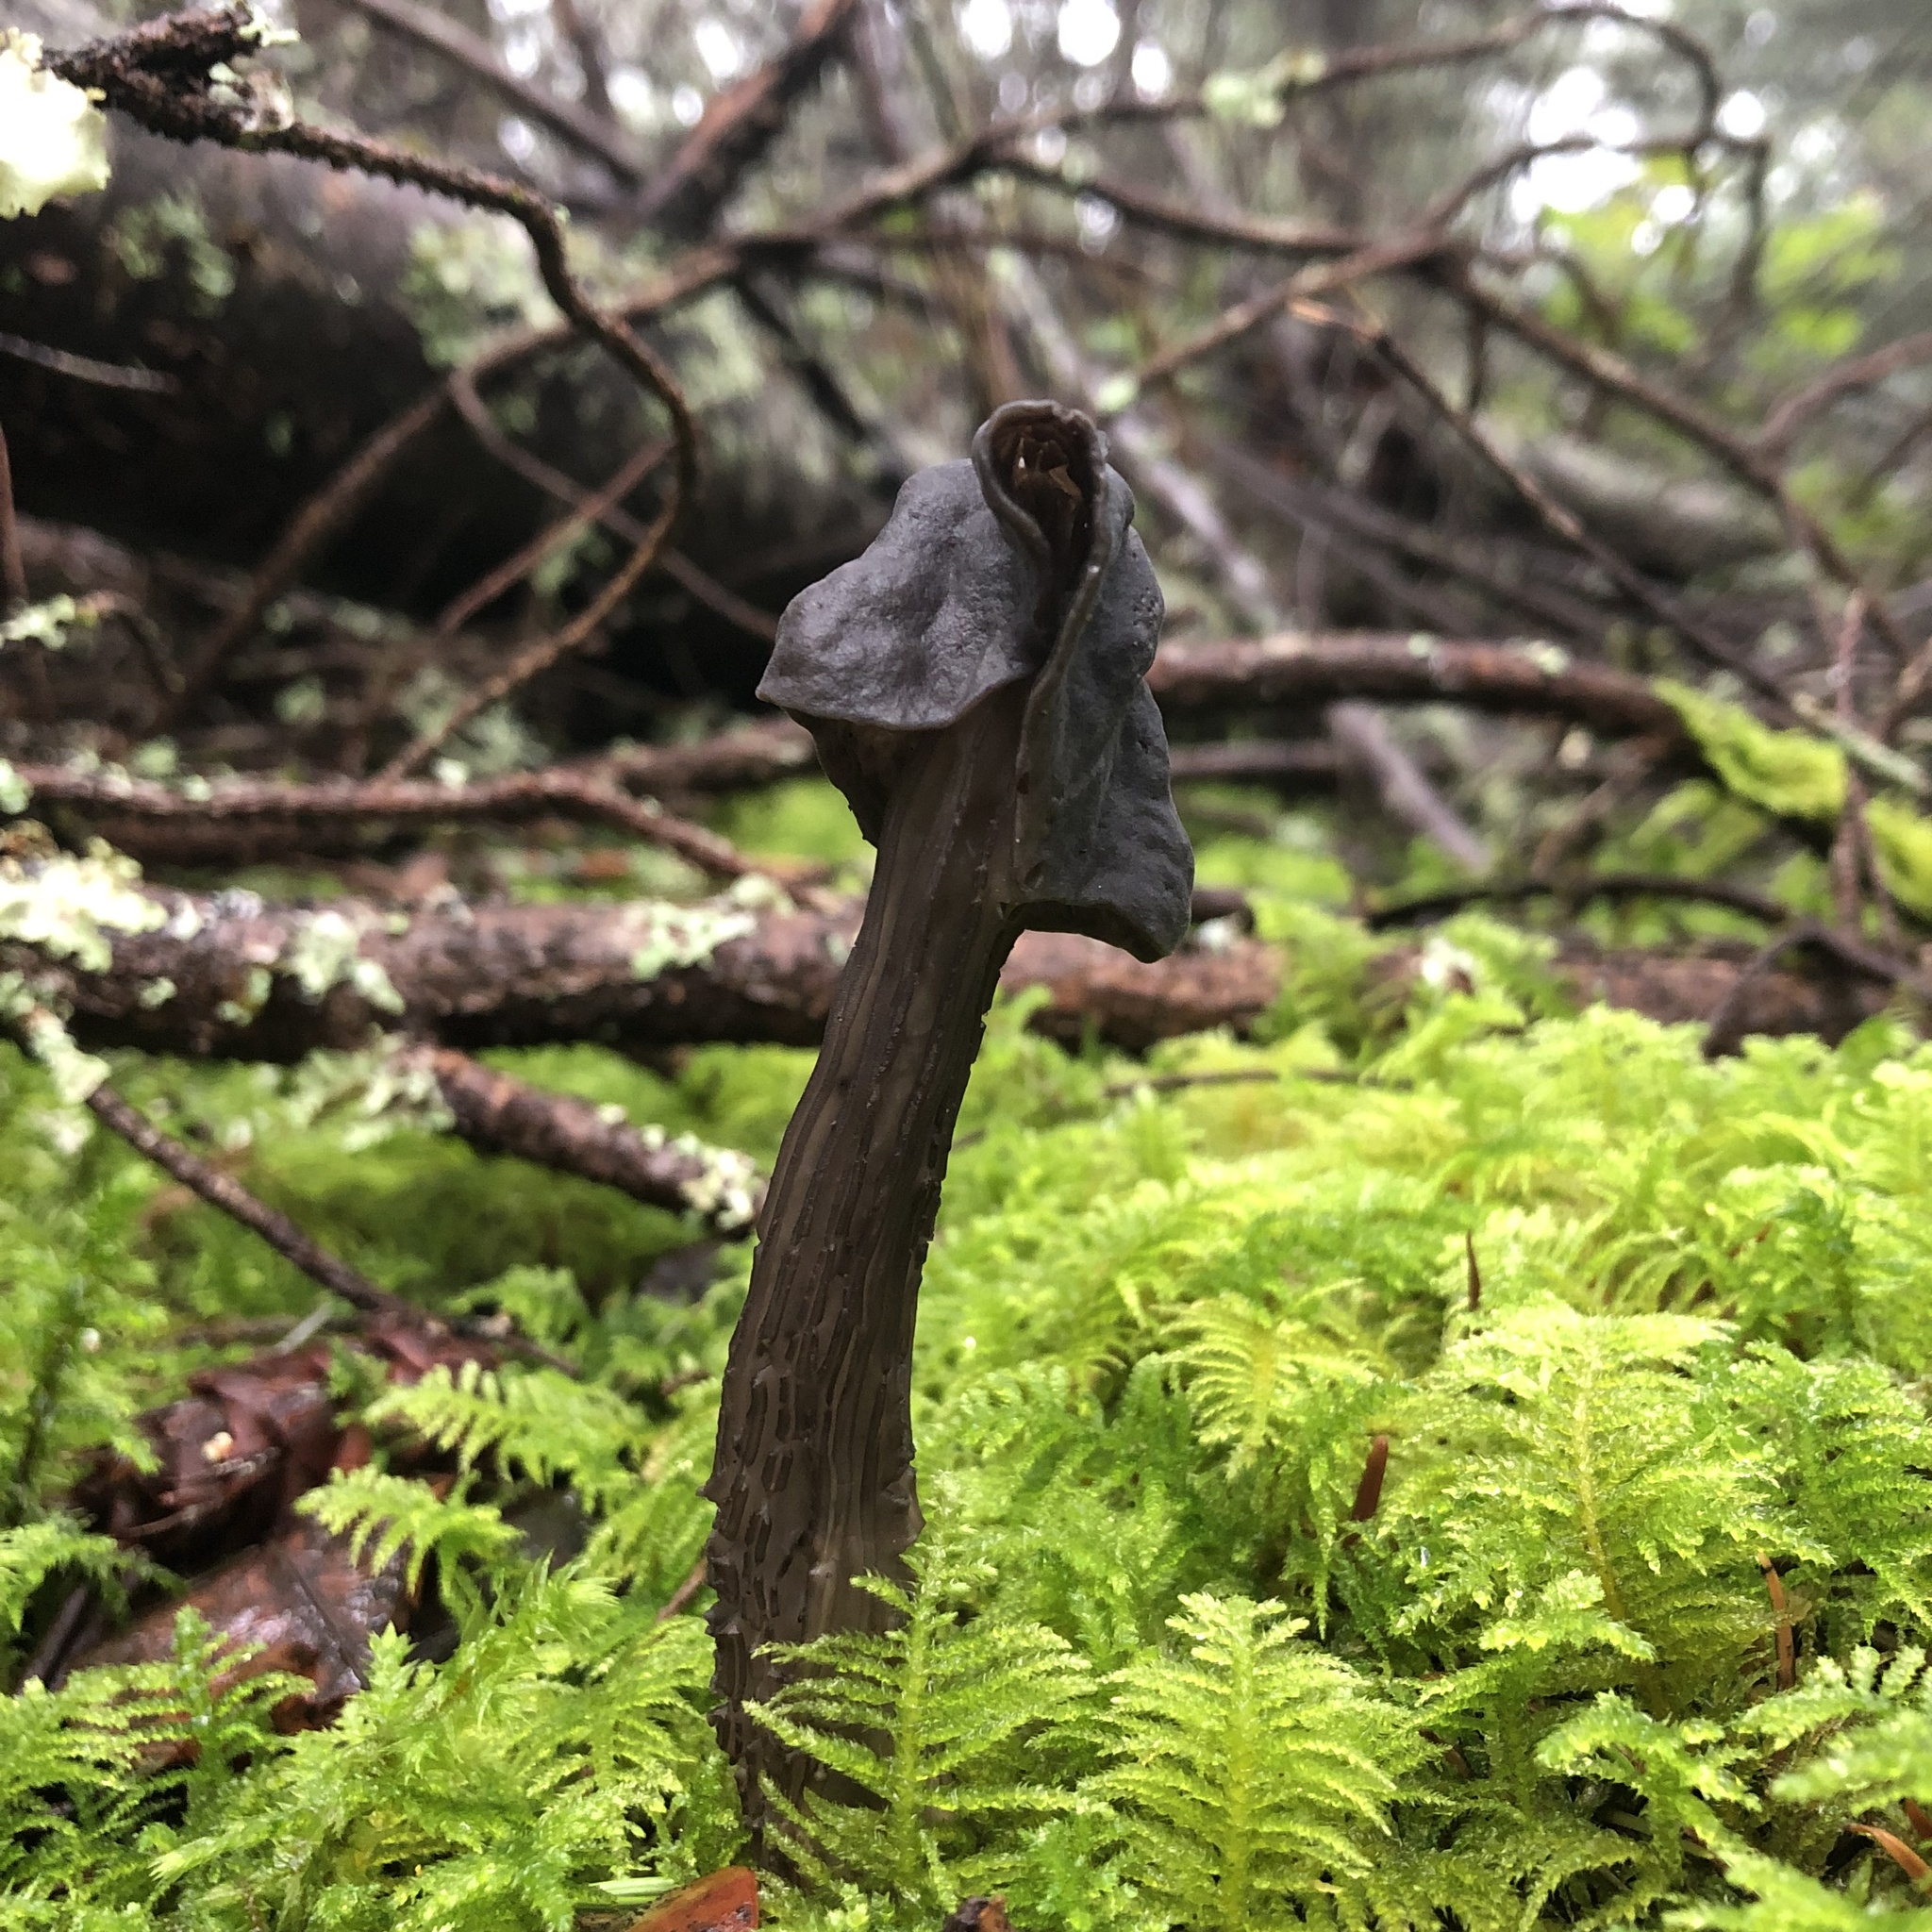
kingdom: Fungi
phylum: Ascomycota
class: Pezizomycetes
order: Pezizales
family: Helvellaceae
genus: Helvella
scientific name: Helvella vespertina
